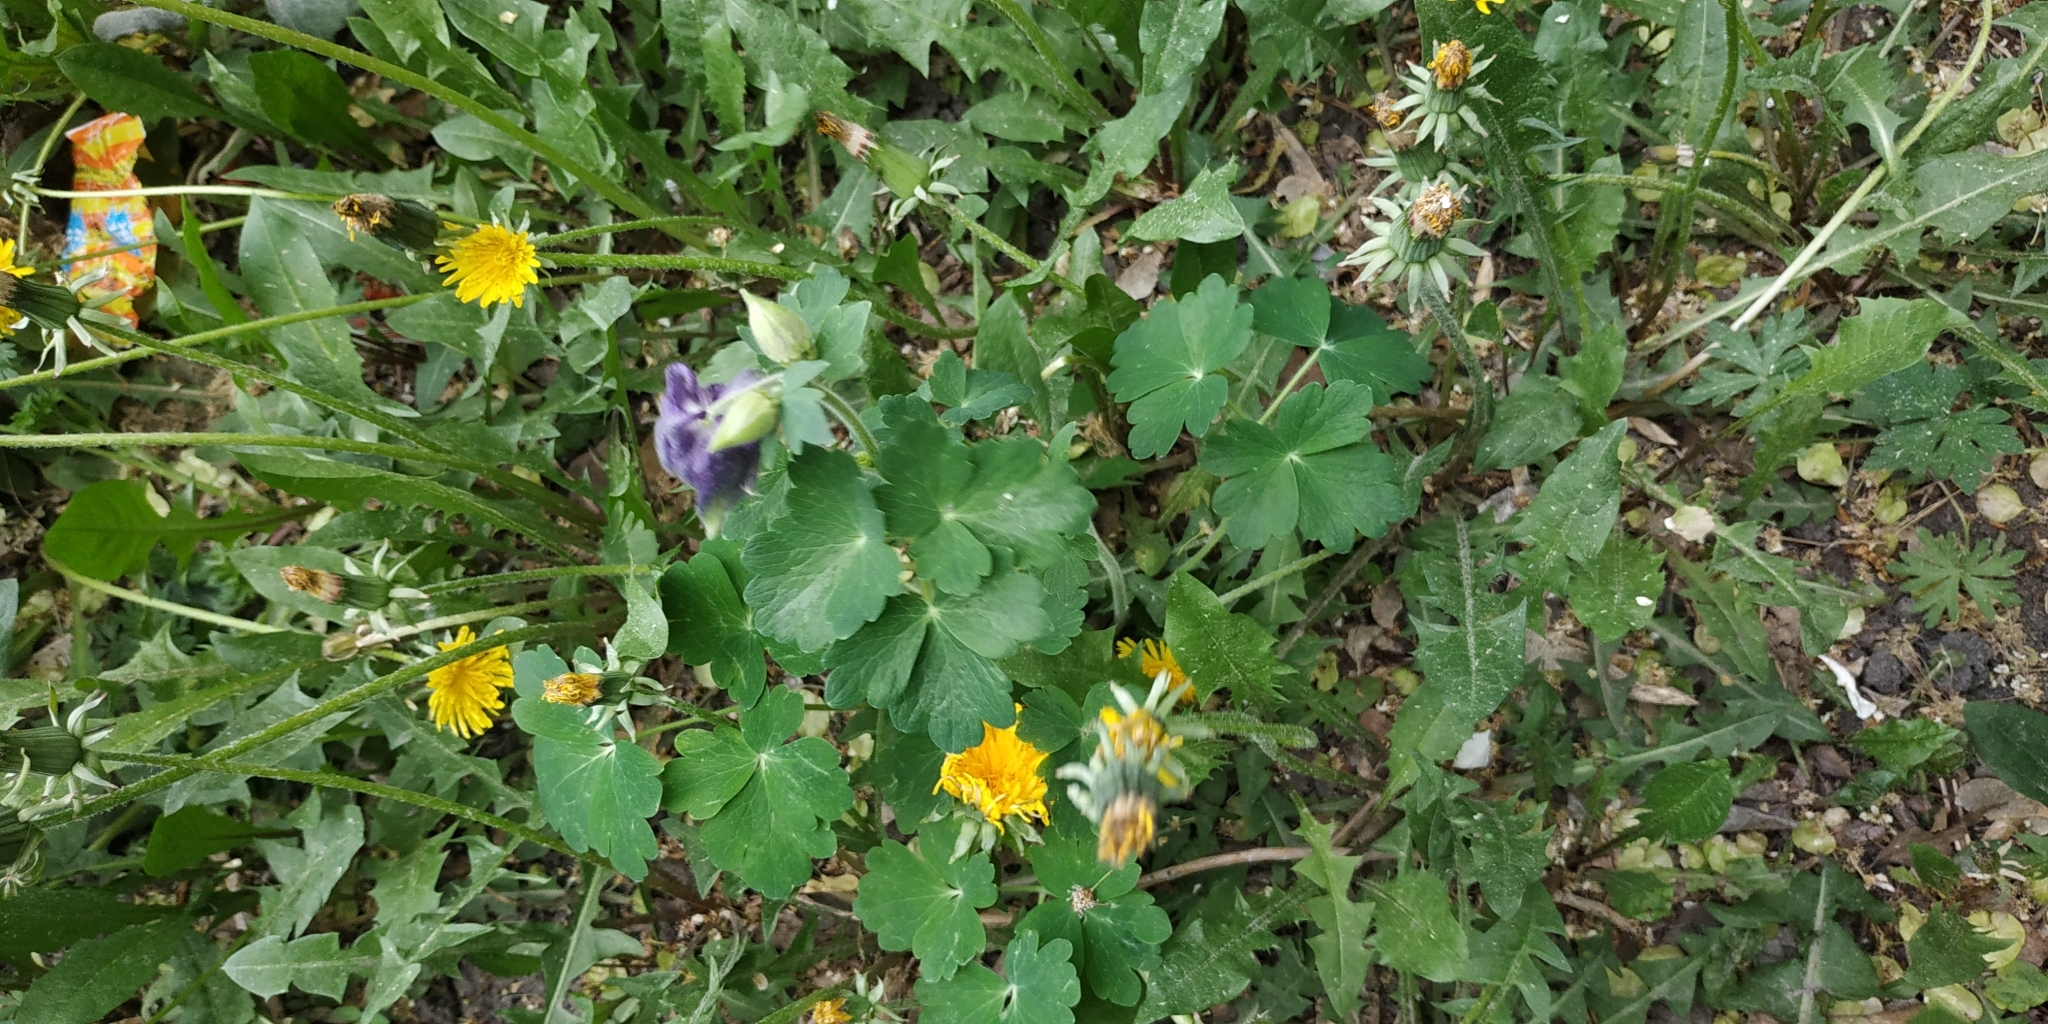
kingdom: Plantae
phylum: Tracheophyta
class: Magnoliopsida
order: Ranunculales
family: Ranunculaceae
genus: Aquilegia
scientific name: Aquilegia vulgaris
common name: Columbine
